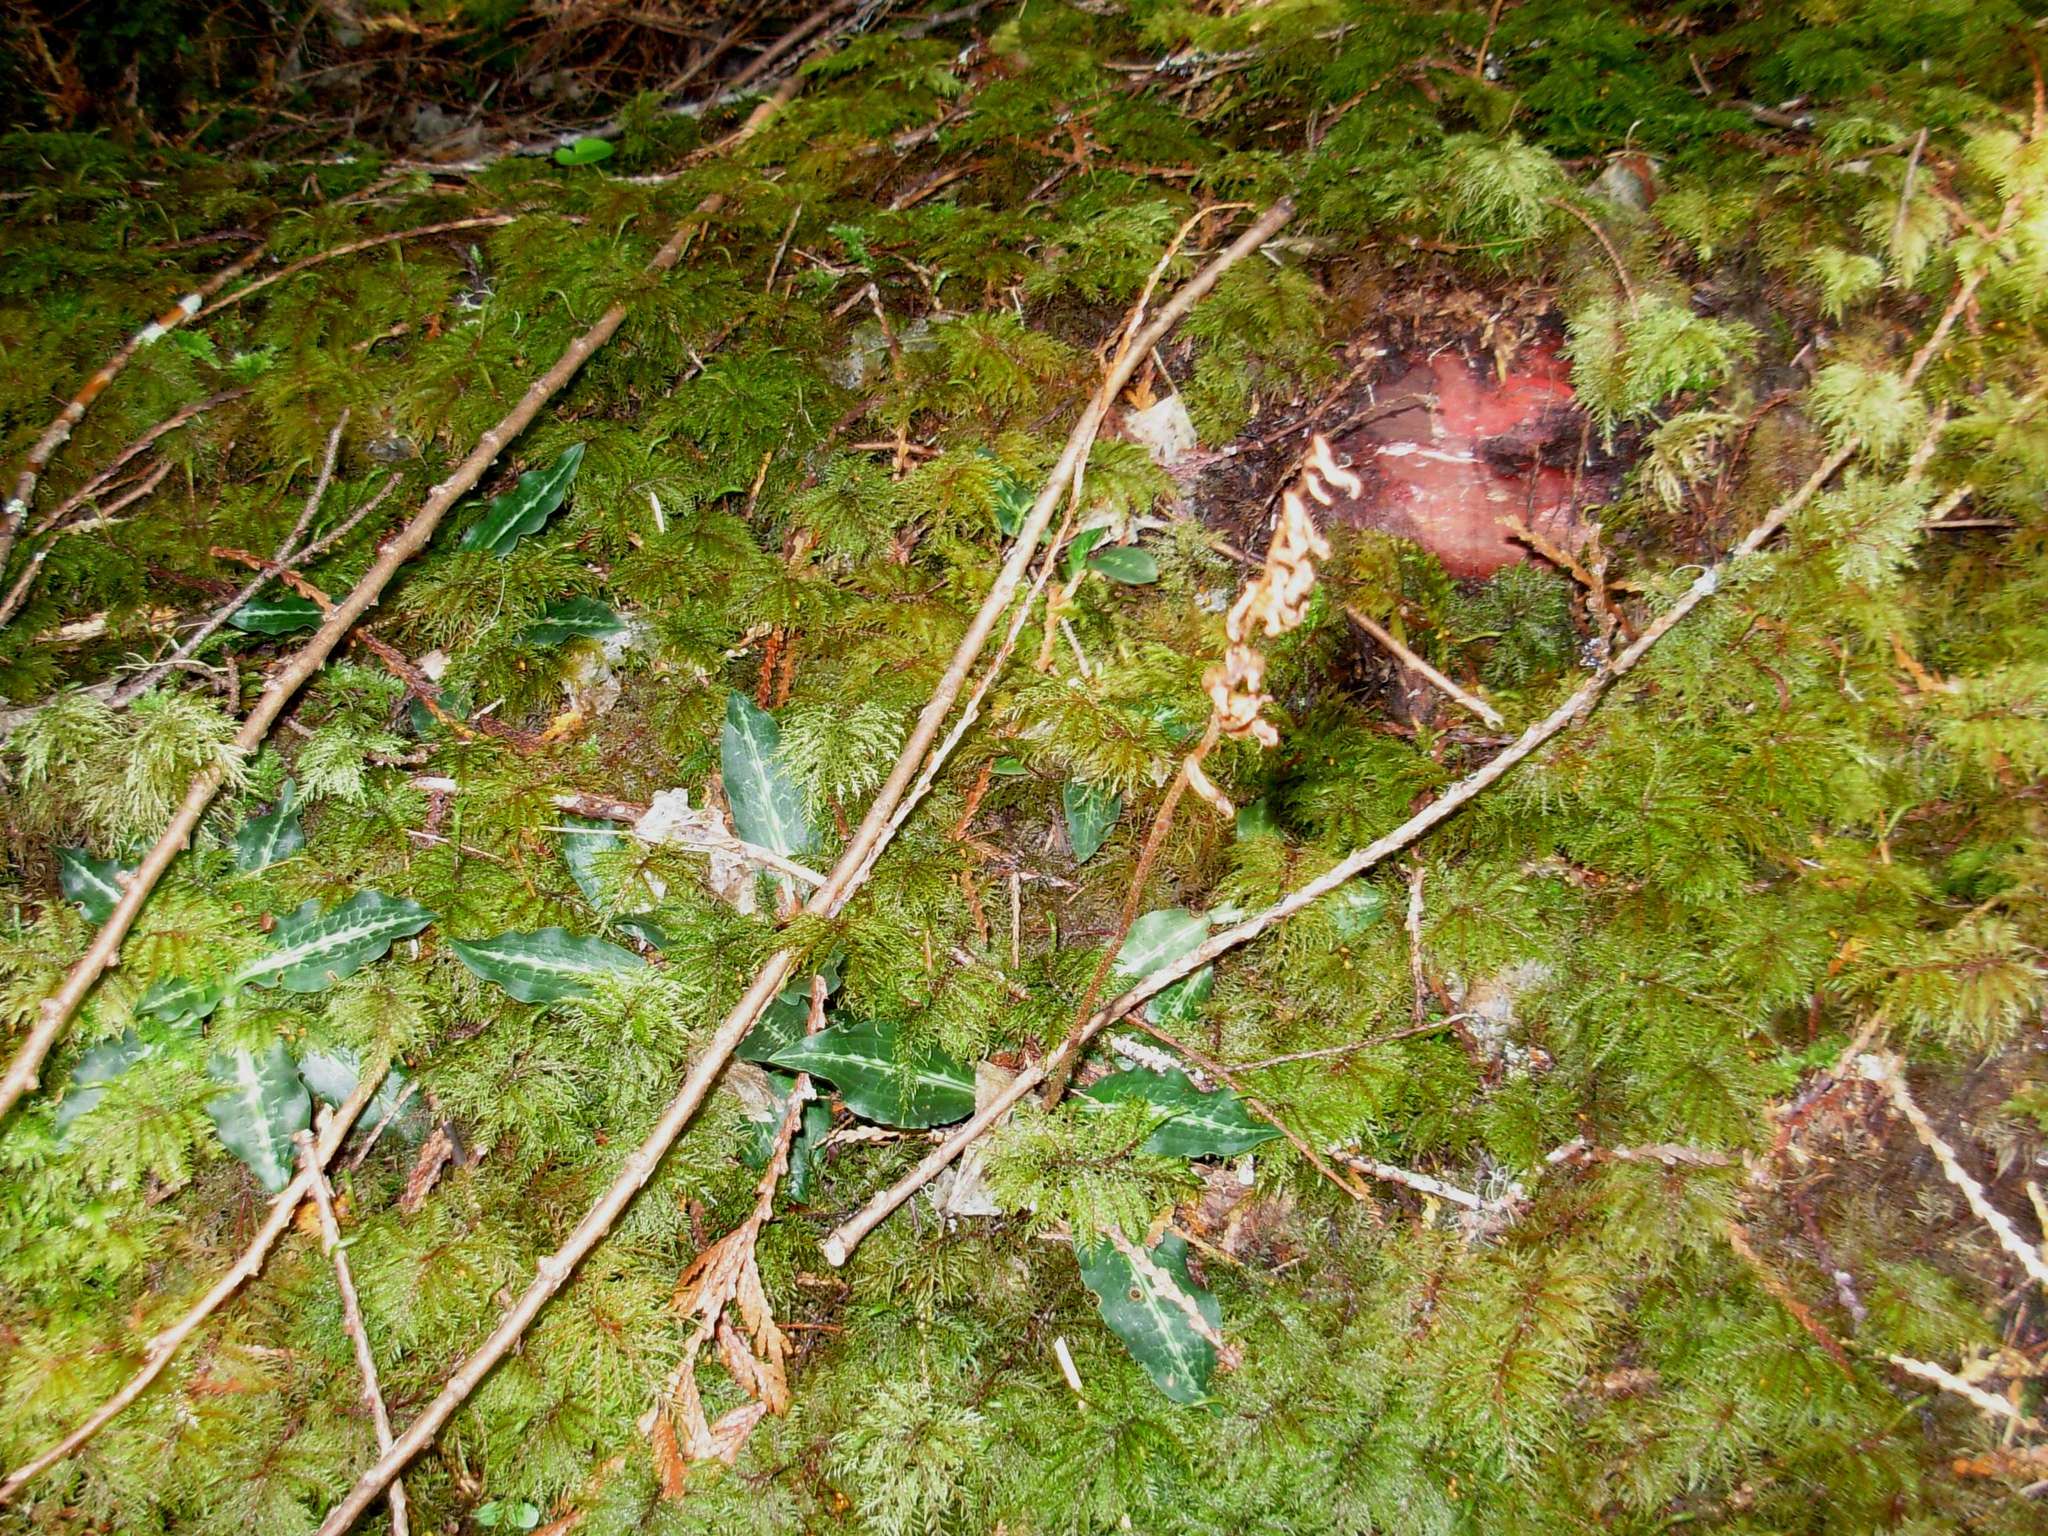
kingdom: Plantae
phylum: Tracheophyta
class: Liliopsida
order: Asparagales
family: Orchidaceae
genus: Goodyera
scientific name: Goodyera oblongifolia
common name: Giant rattlesnake-plantain
